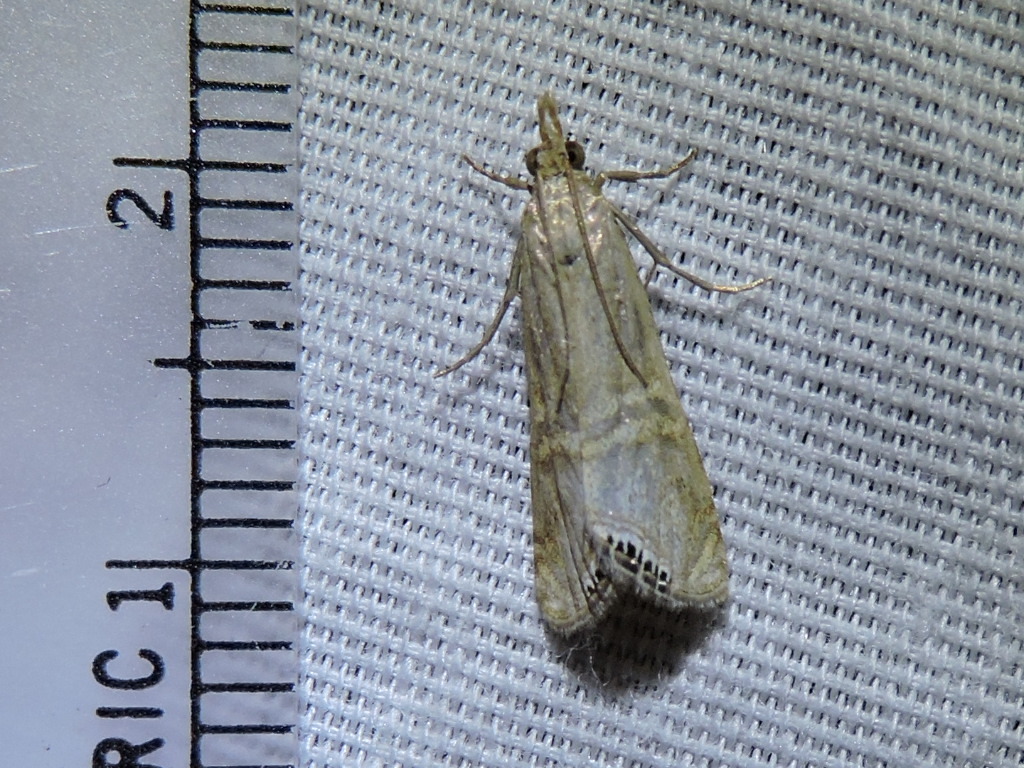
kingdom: Animalia
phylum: Arthropoda
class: Insecta
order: Lepidoptera
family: Crambidae
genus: Euchromius
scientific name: Euchromius ocellea
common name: Necklace veneer moth
